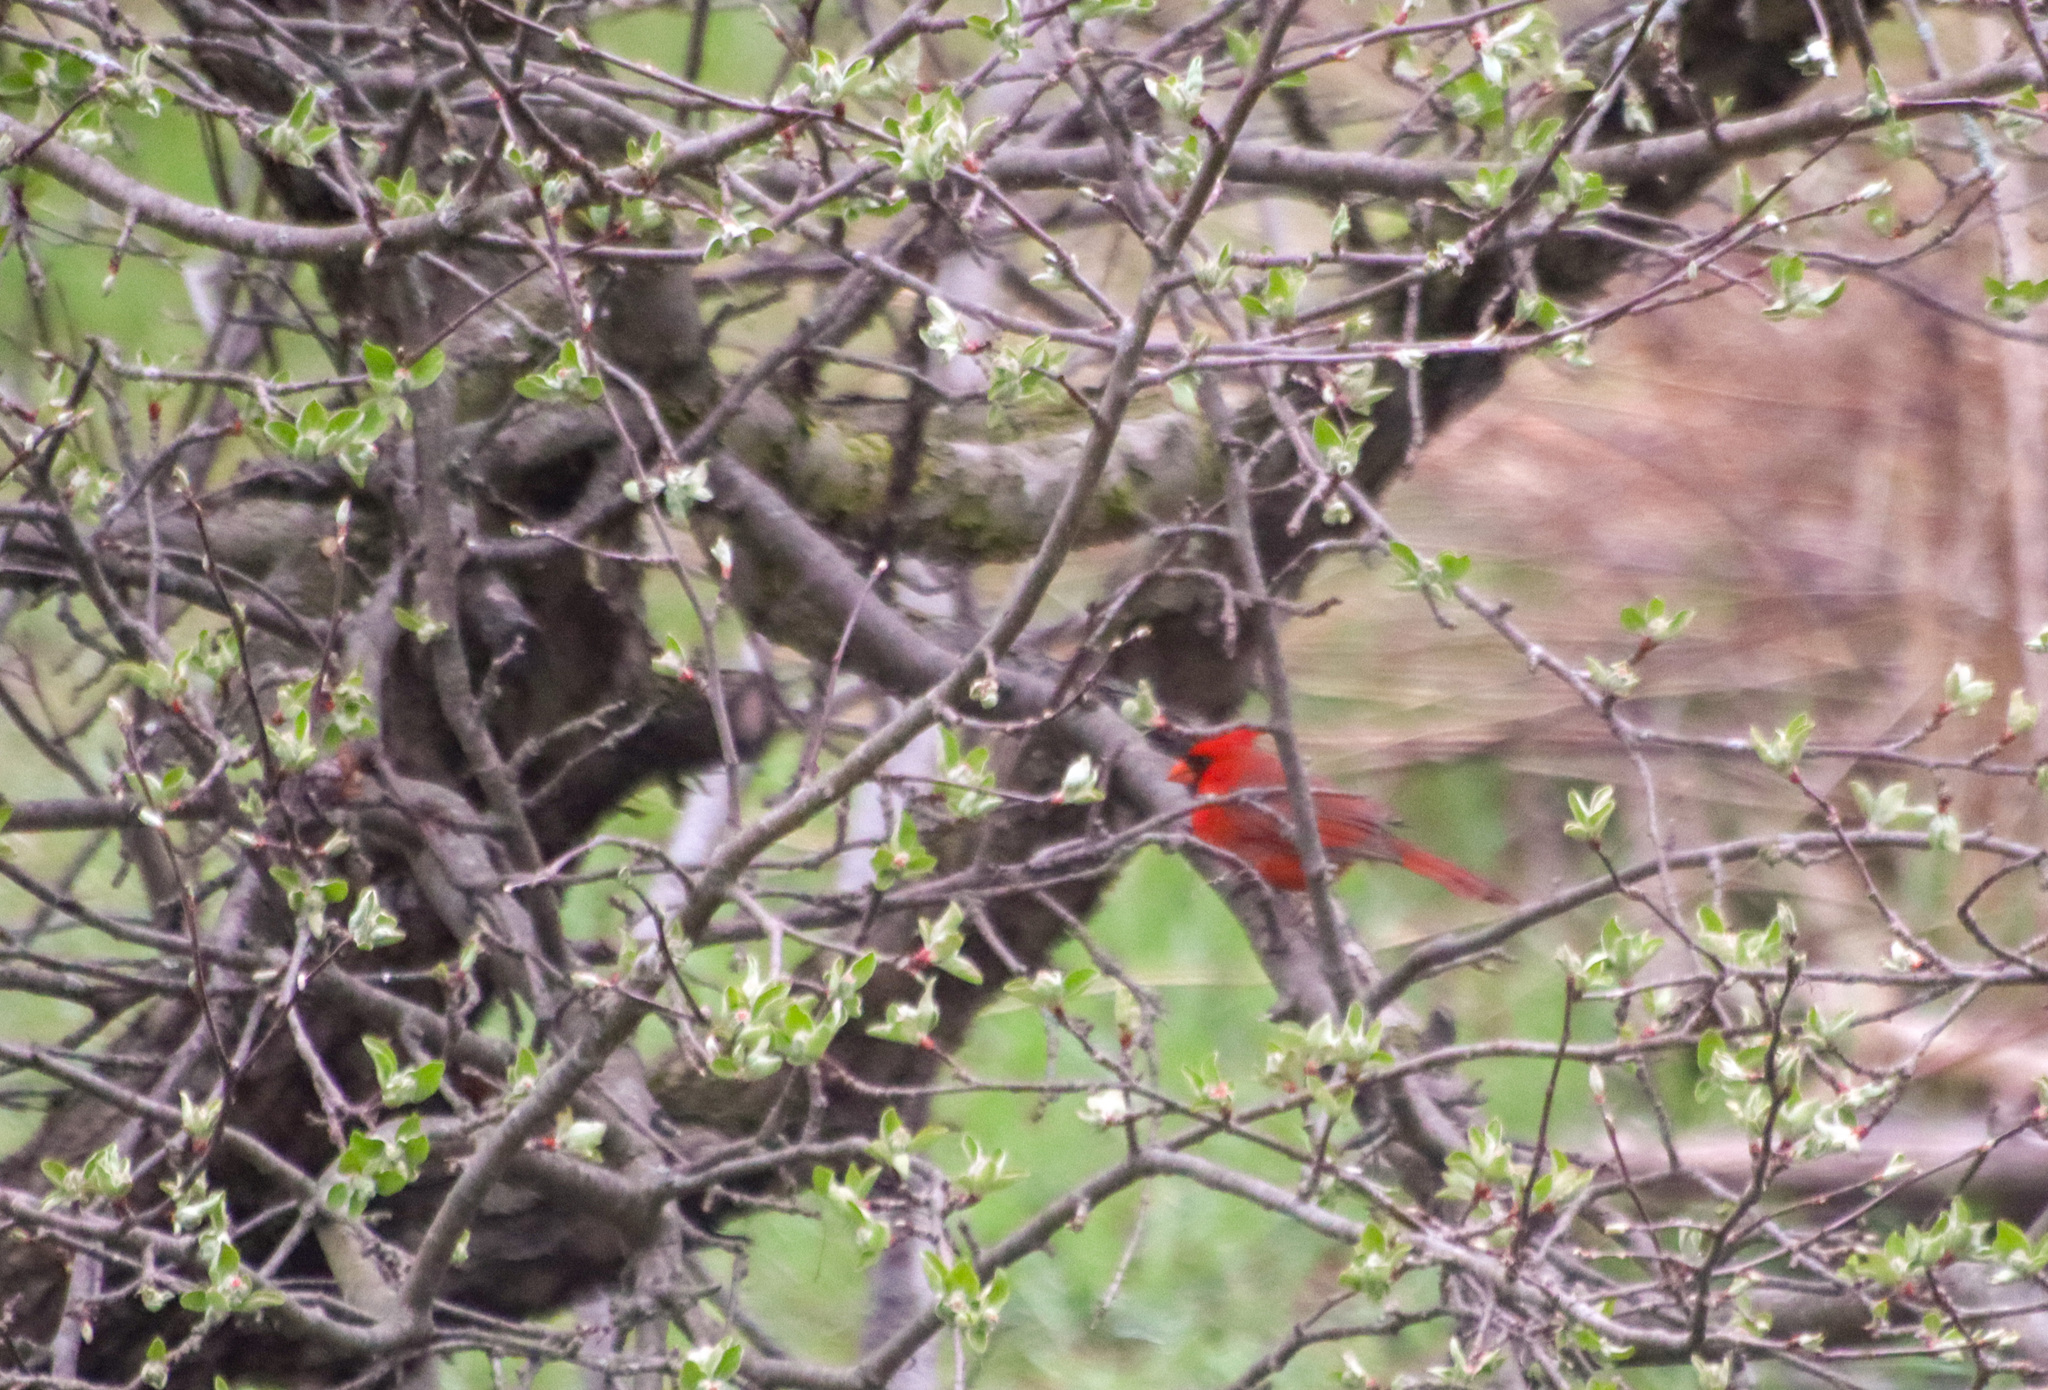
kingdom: Animalia
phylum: Chordata
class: Aves
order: Passeriformes
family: Cardinalidae
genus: Cardinalis
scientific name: Cardinalis cardinalis
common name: Northern cardinal
